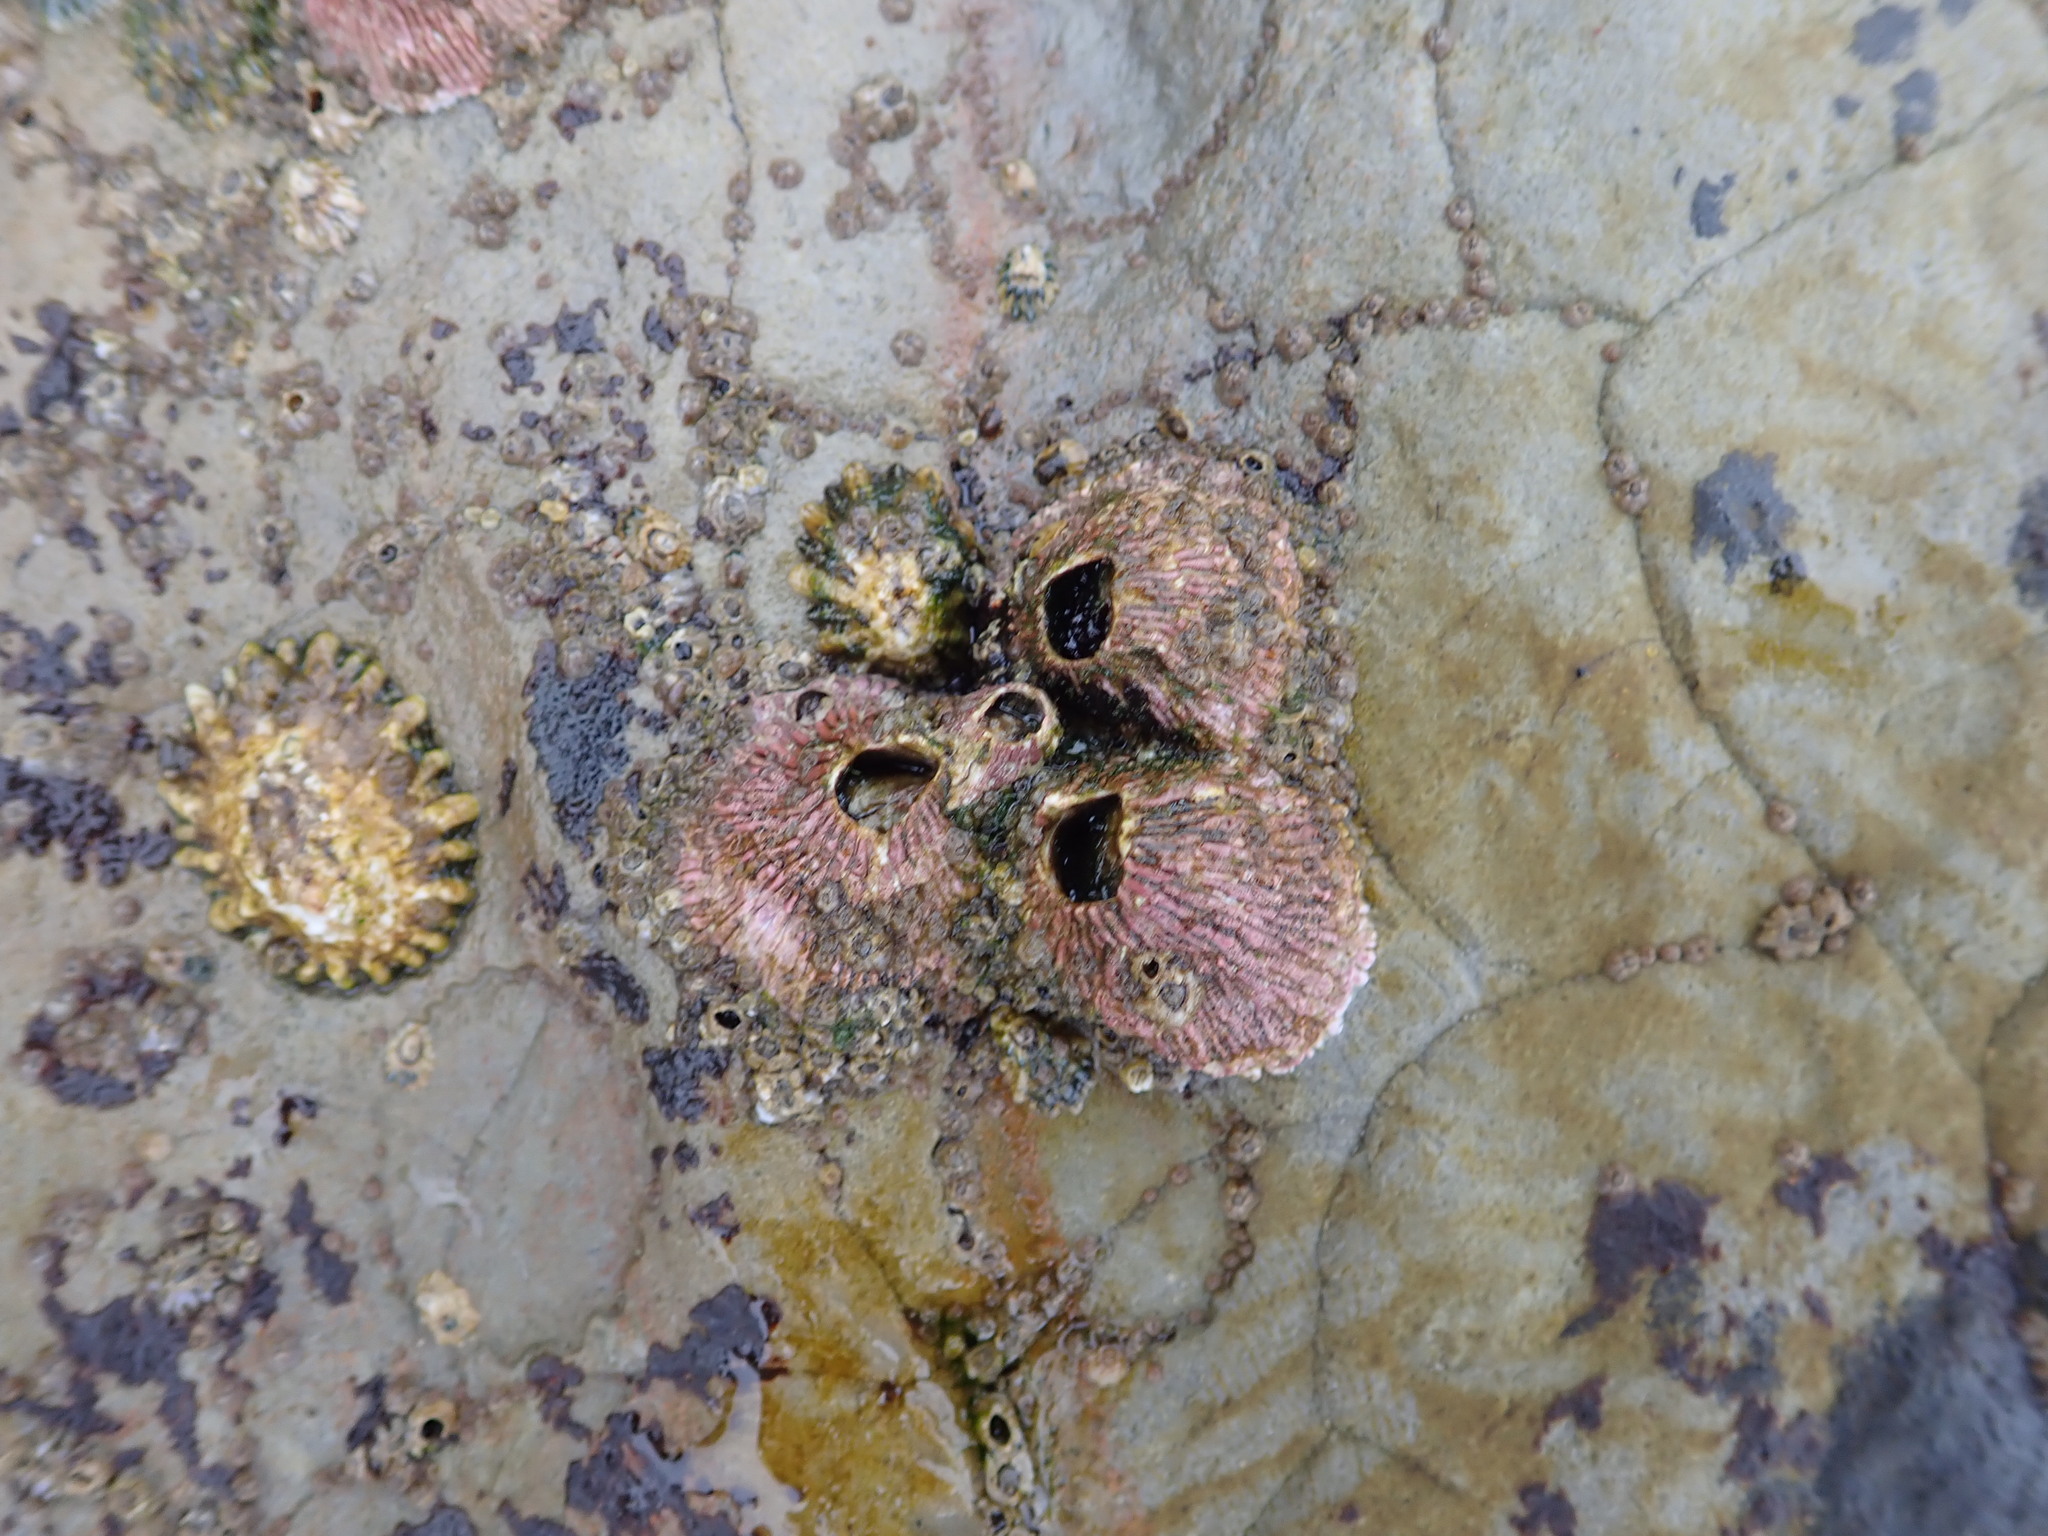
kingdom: Animalia
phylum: Arthropoda
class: Maxillopoda
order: Sessilia
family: Tetraclitidae
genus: Tetraclita
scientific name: Tetraclita rubescens
